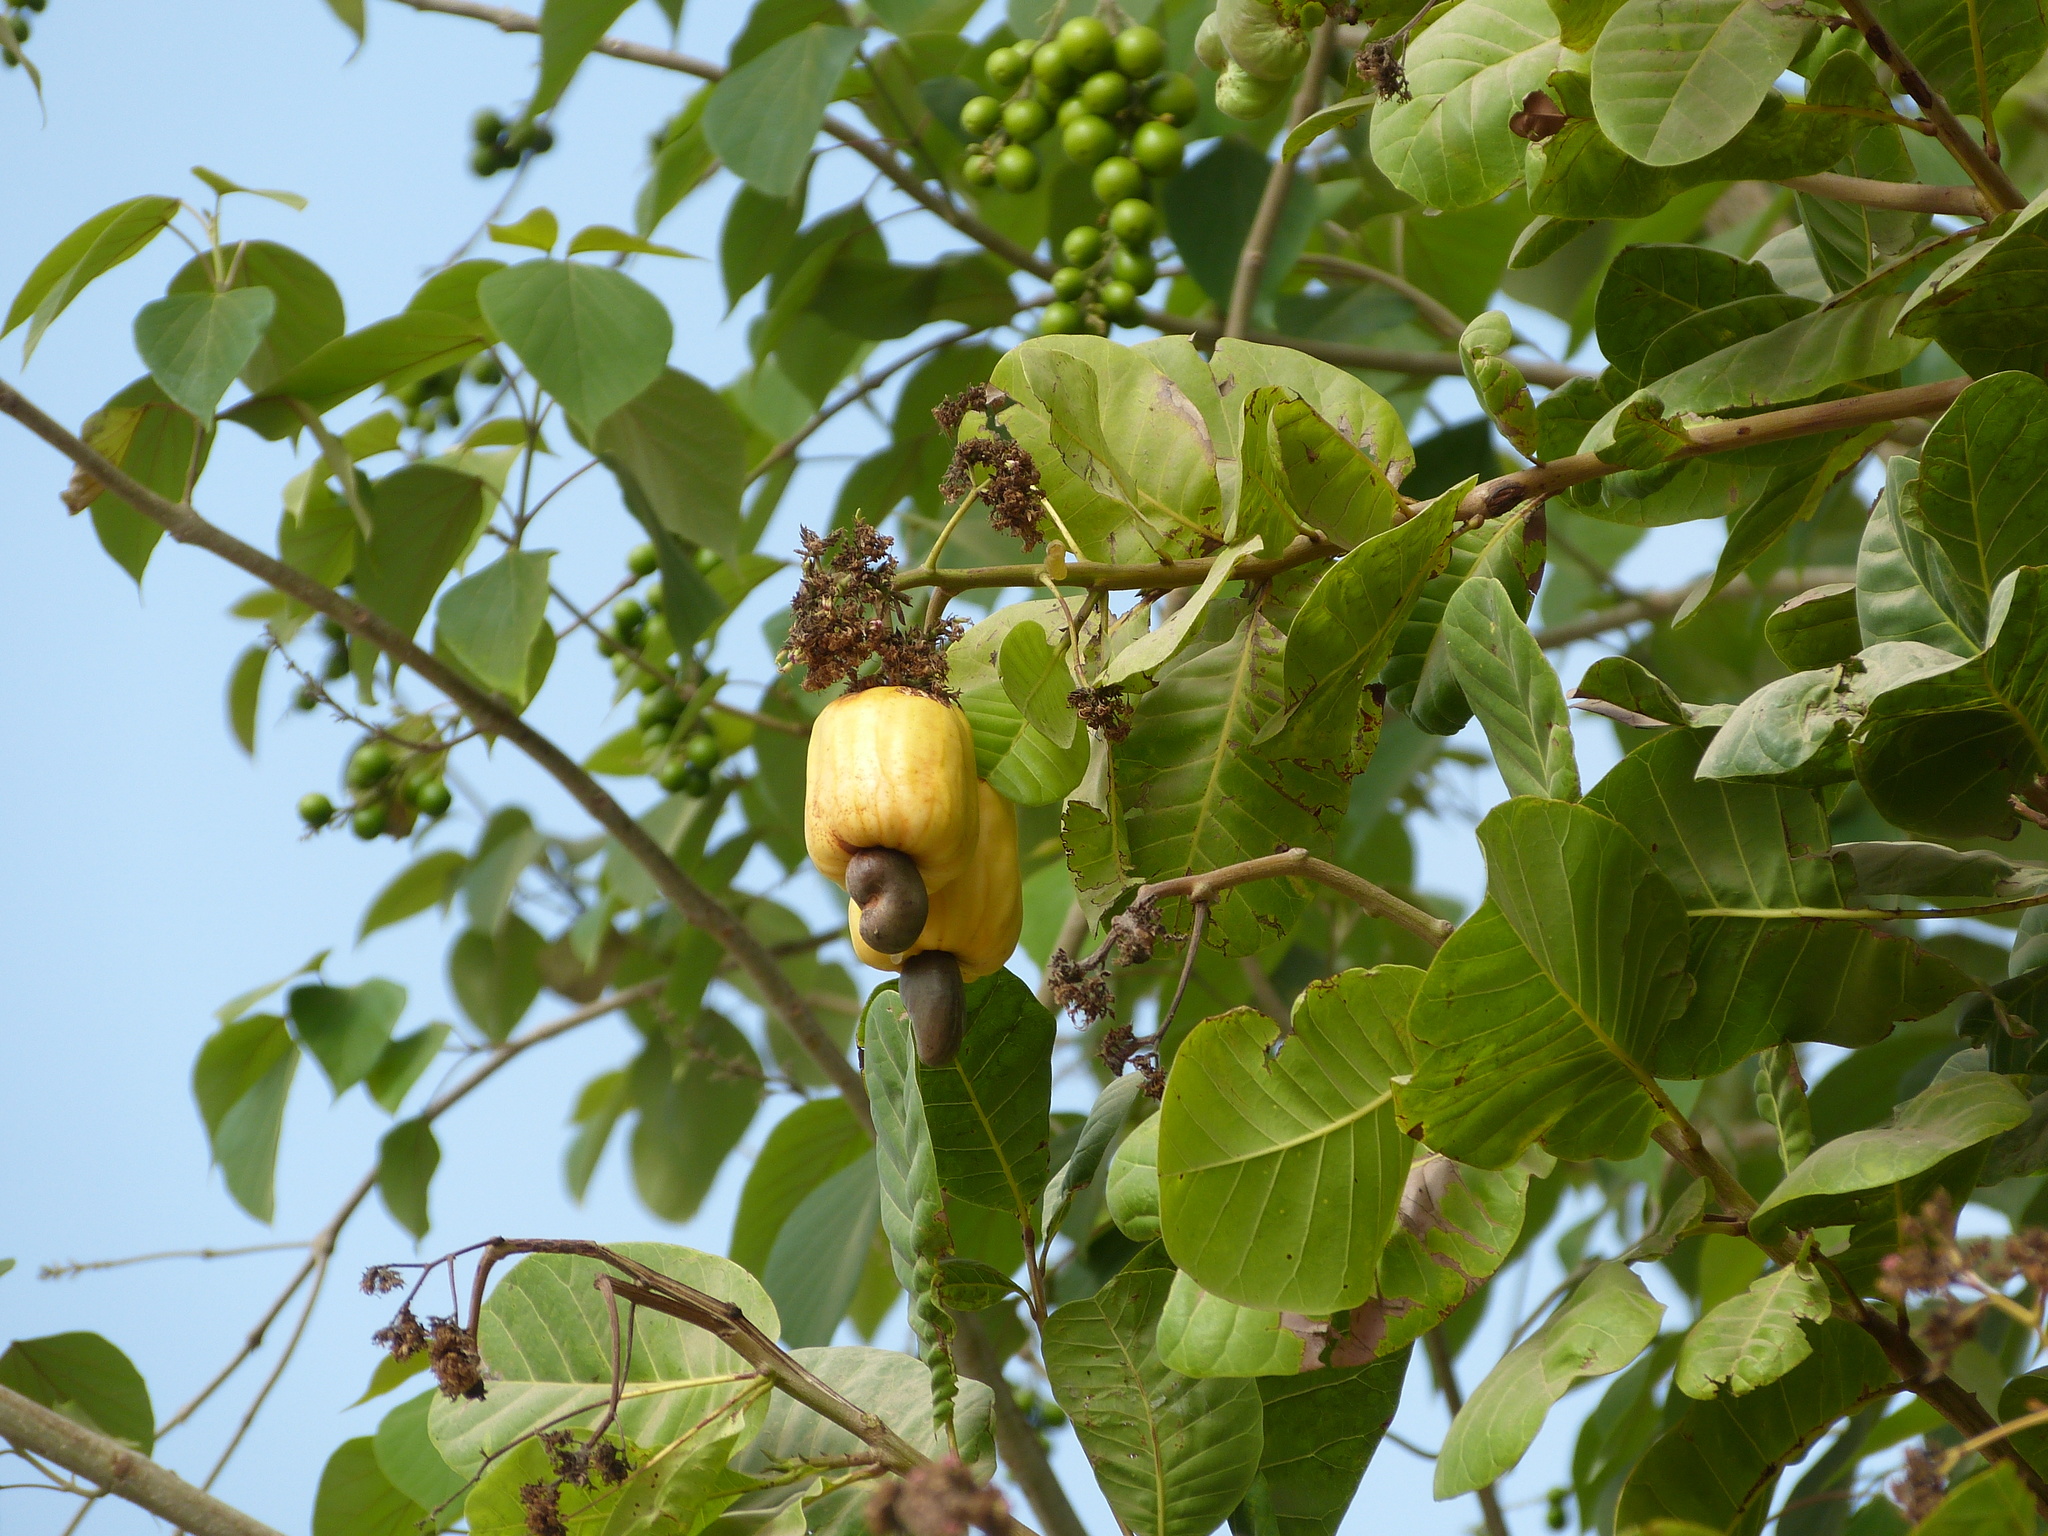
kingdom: Plantae
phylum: Tracheophyta
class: Magnoliopsida
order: Sapindales
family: Anacardiaceae
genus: Anacardium
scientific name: Anacardium occidentale
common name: Cashew
